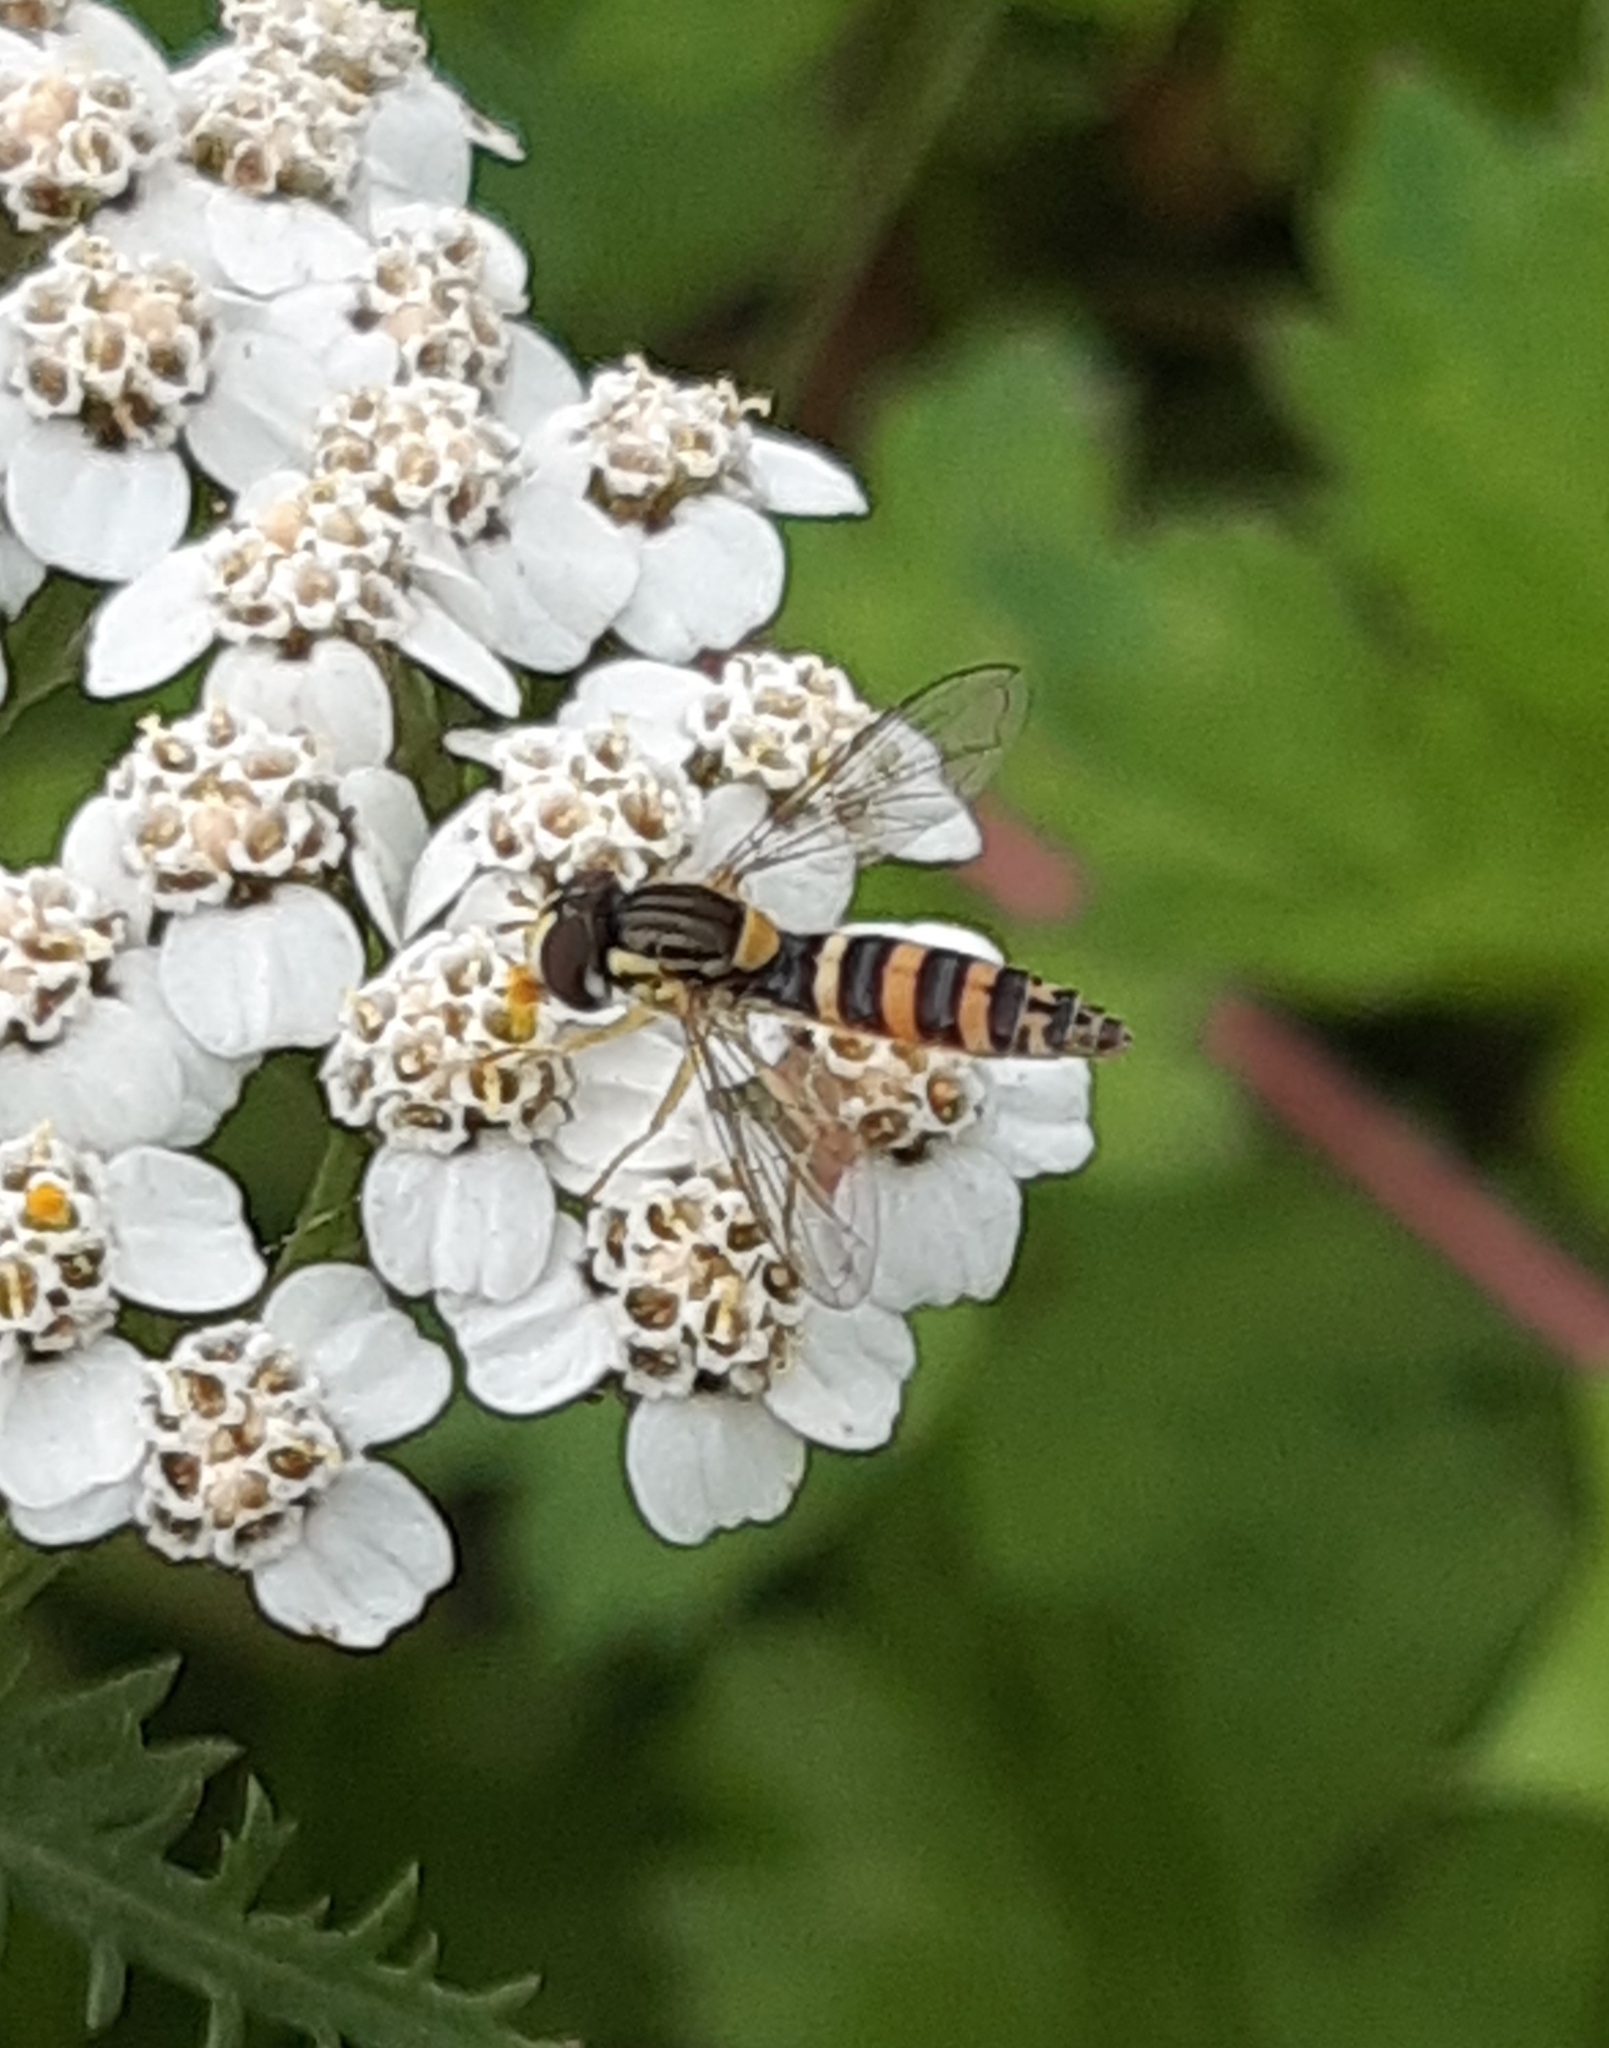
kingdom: Animalia
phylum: Arthropoda
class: Insecta
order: Diptera
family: Syrphidae
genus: Sphaerophoria
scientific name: Sphaerophoria
